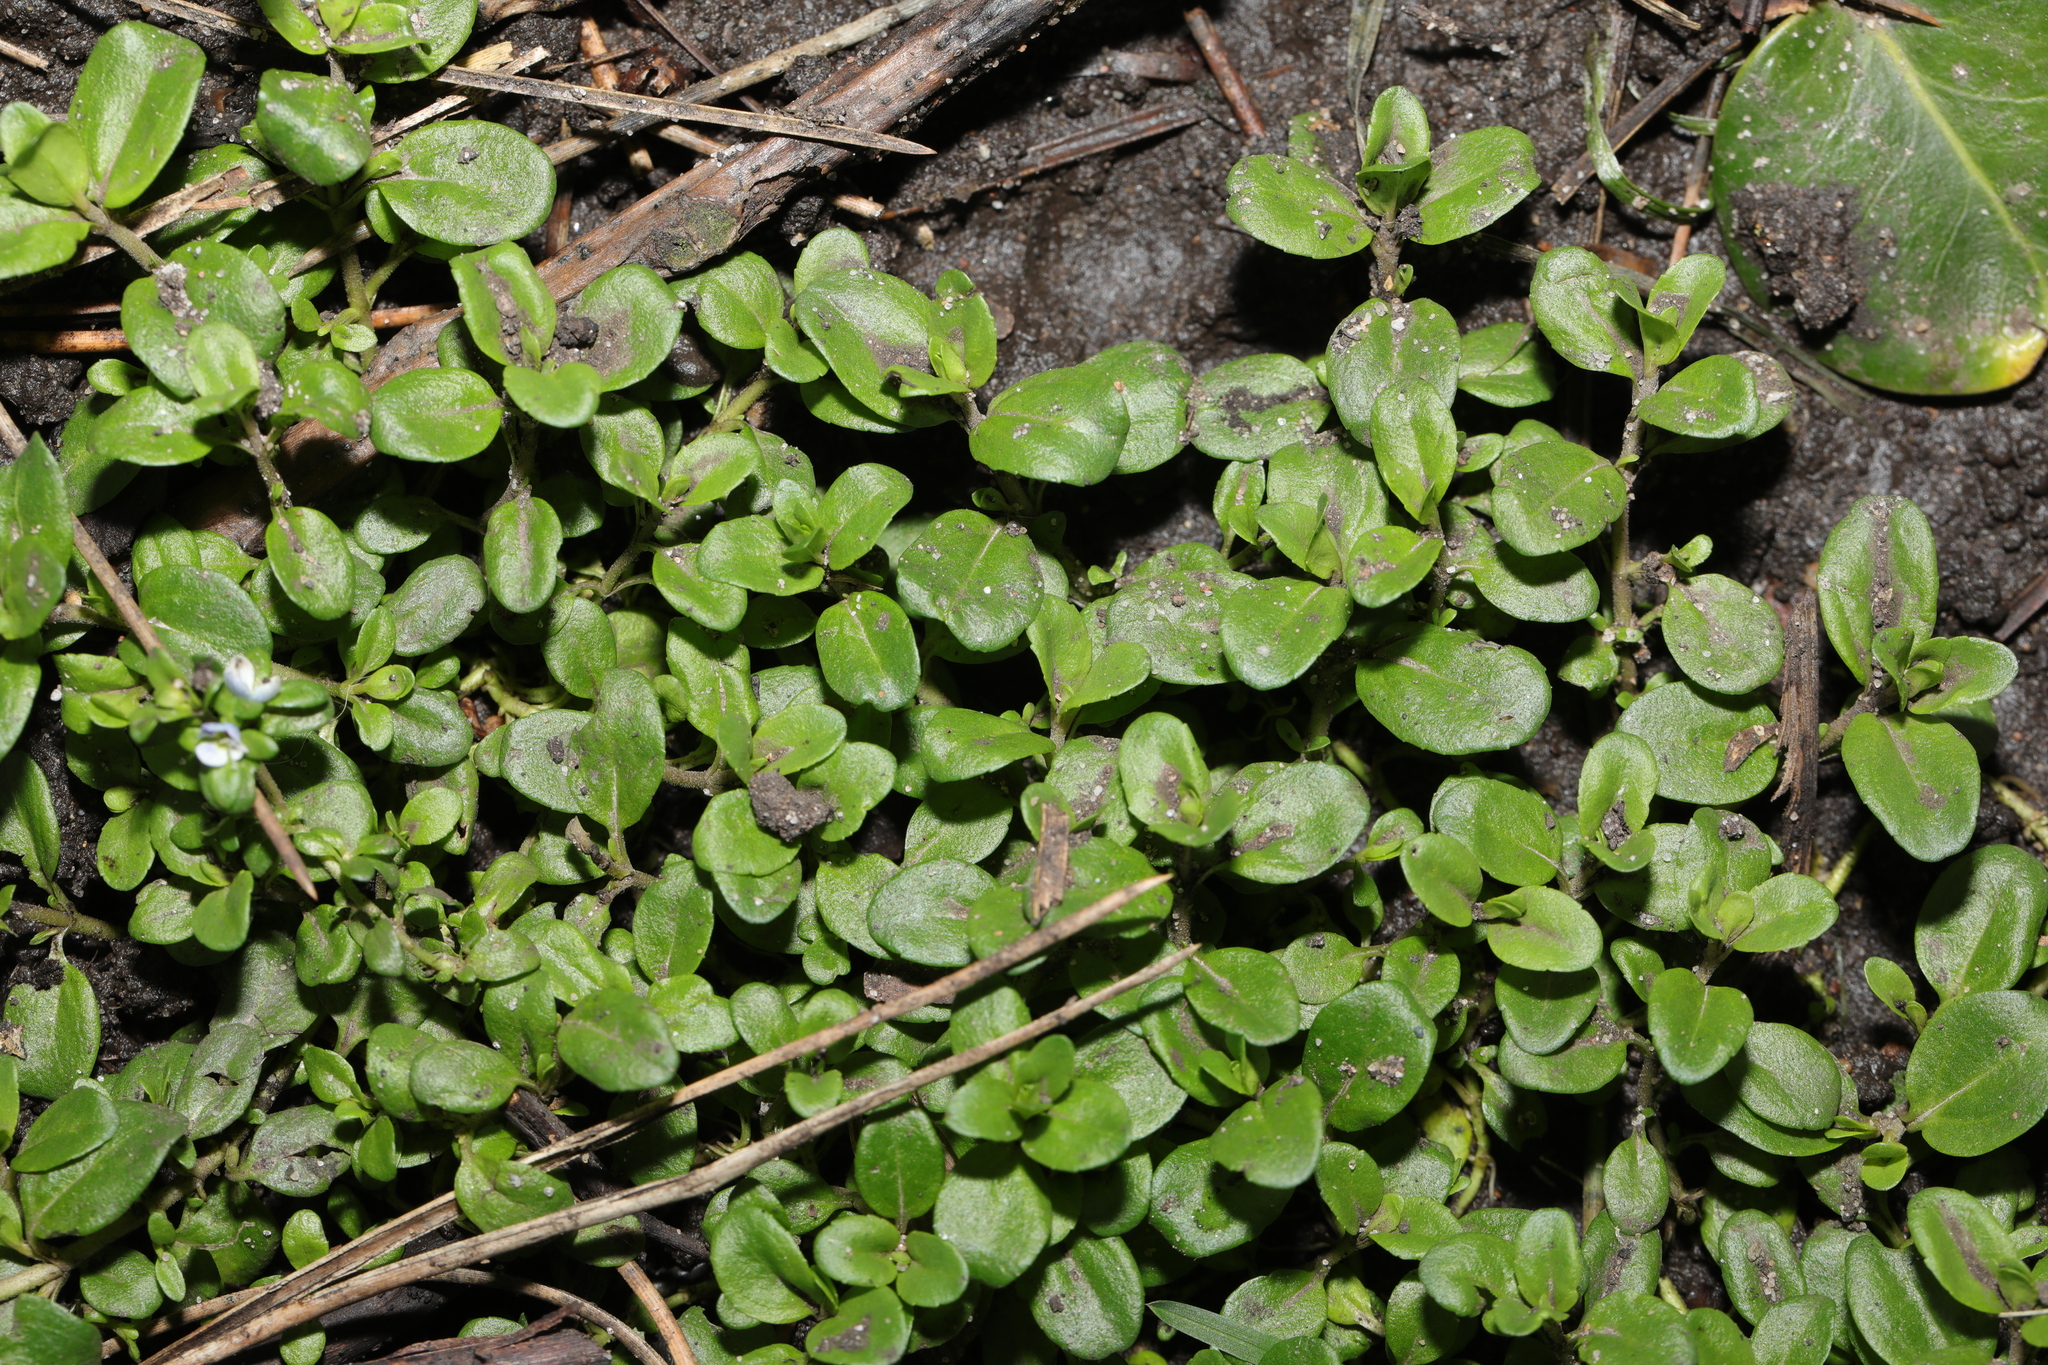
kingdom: Plantae
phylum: Tracheophyta
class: Magnoliopsida
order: Lamiales
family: Plantaginaceae
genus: Veronica
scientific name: Veronica serpyllifolia
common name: Thyme-leaved speedwell
